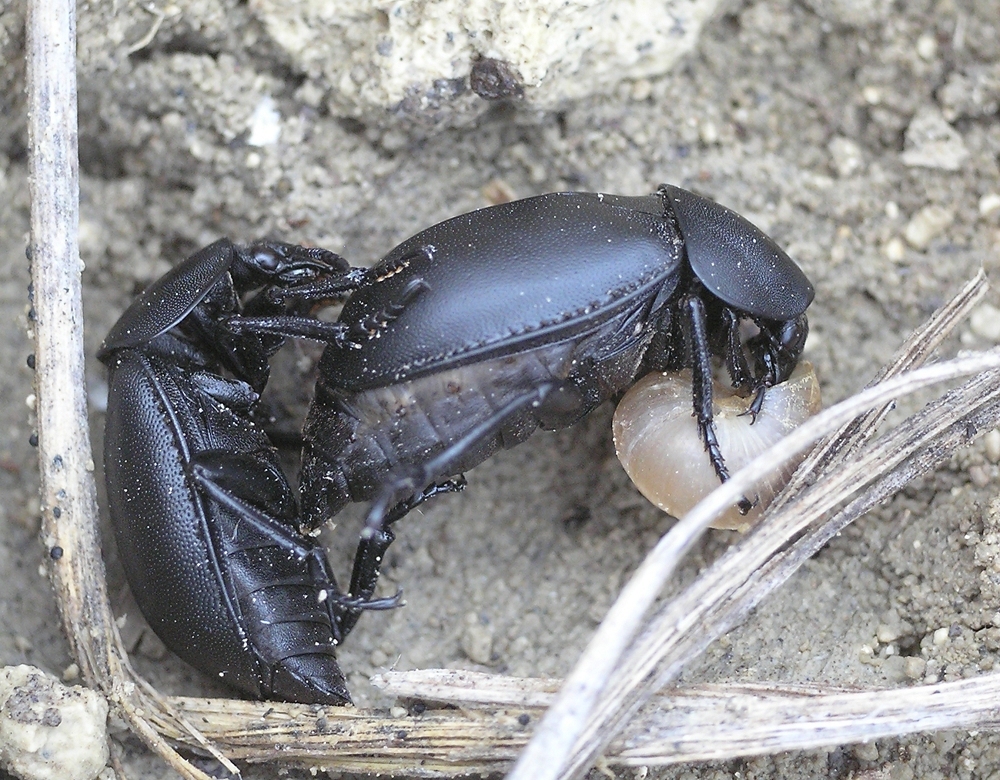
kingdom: Animalia
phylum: Arthropoda
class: Insecta
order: Coleoptera
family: Staphylinidae
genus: Silpha
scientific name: Silpha laevigata
